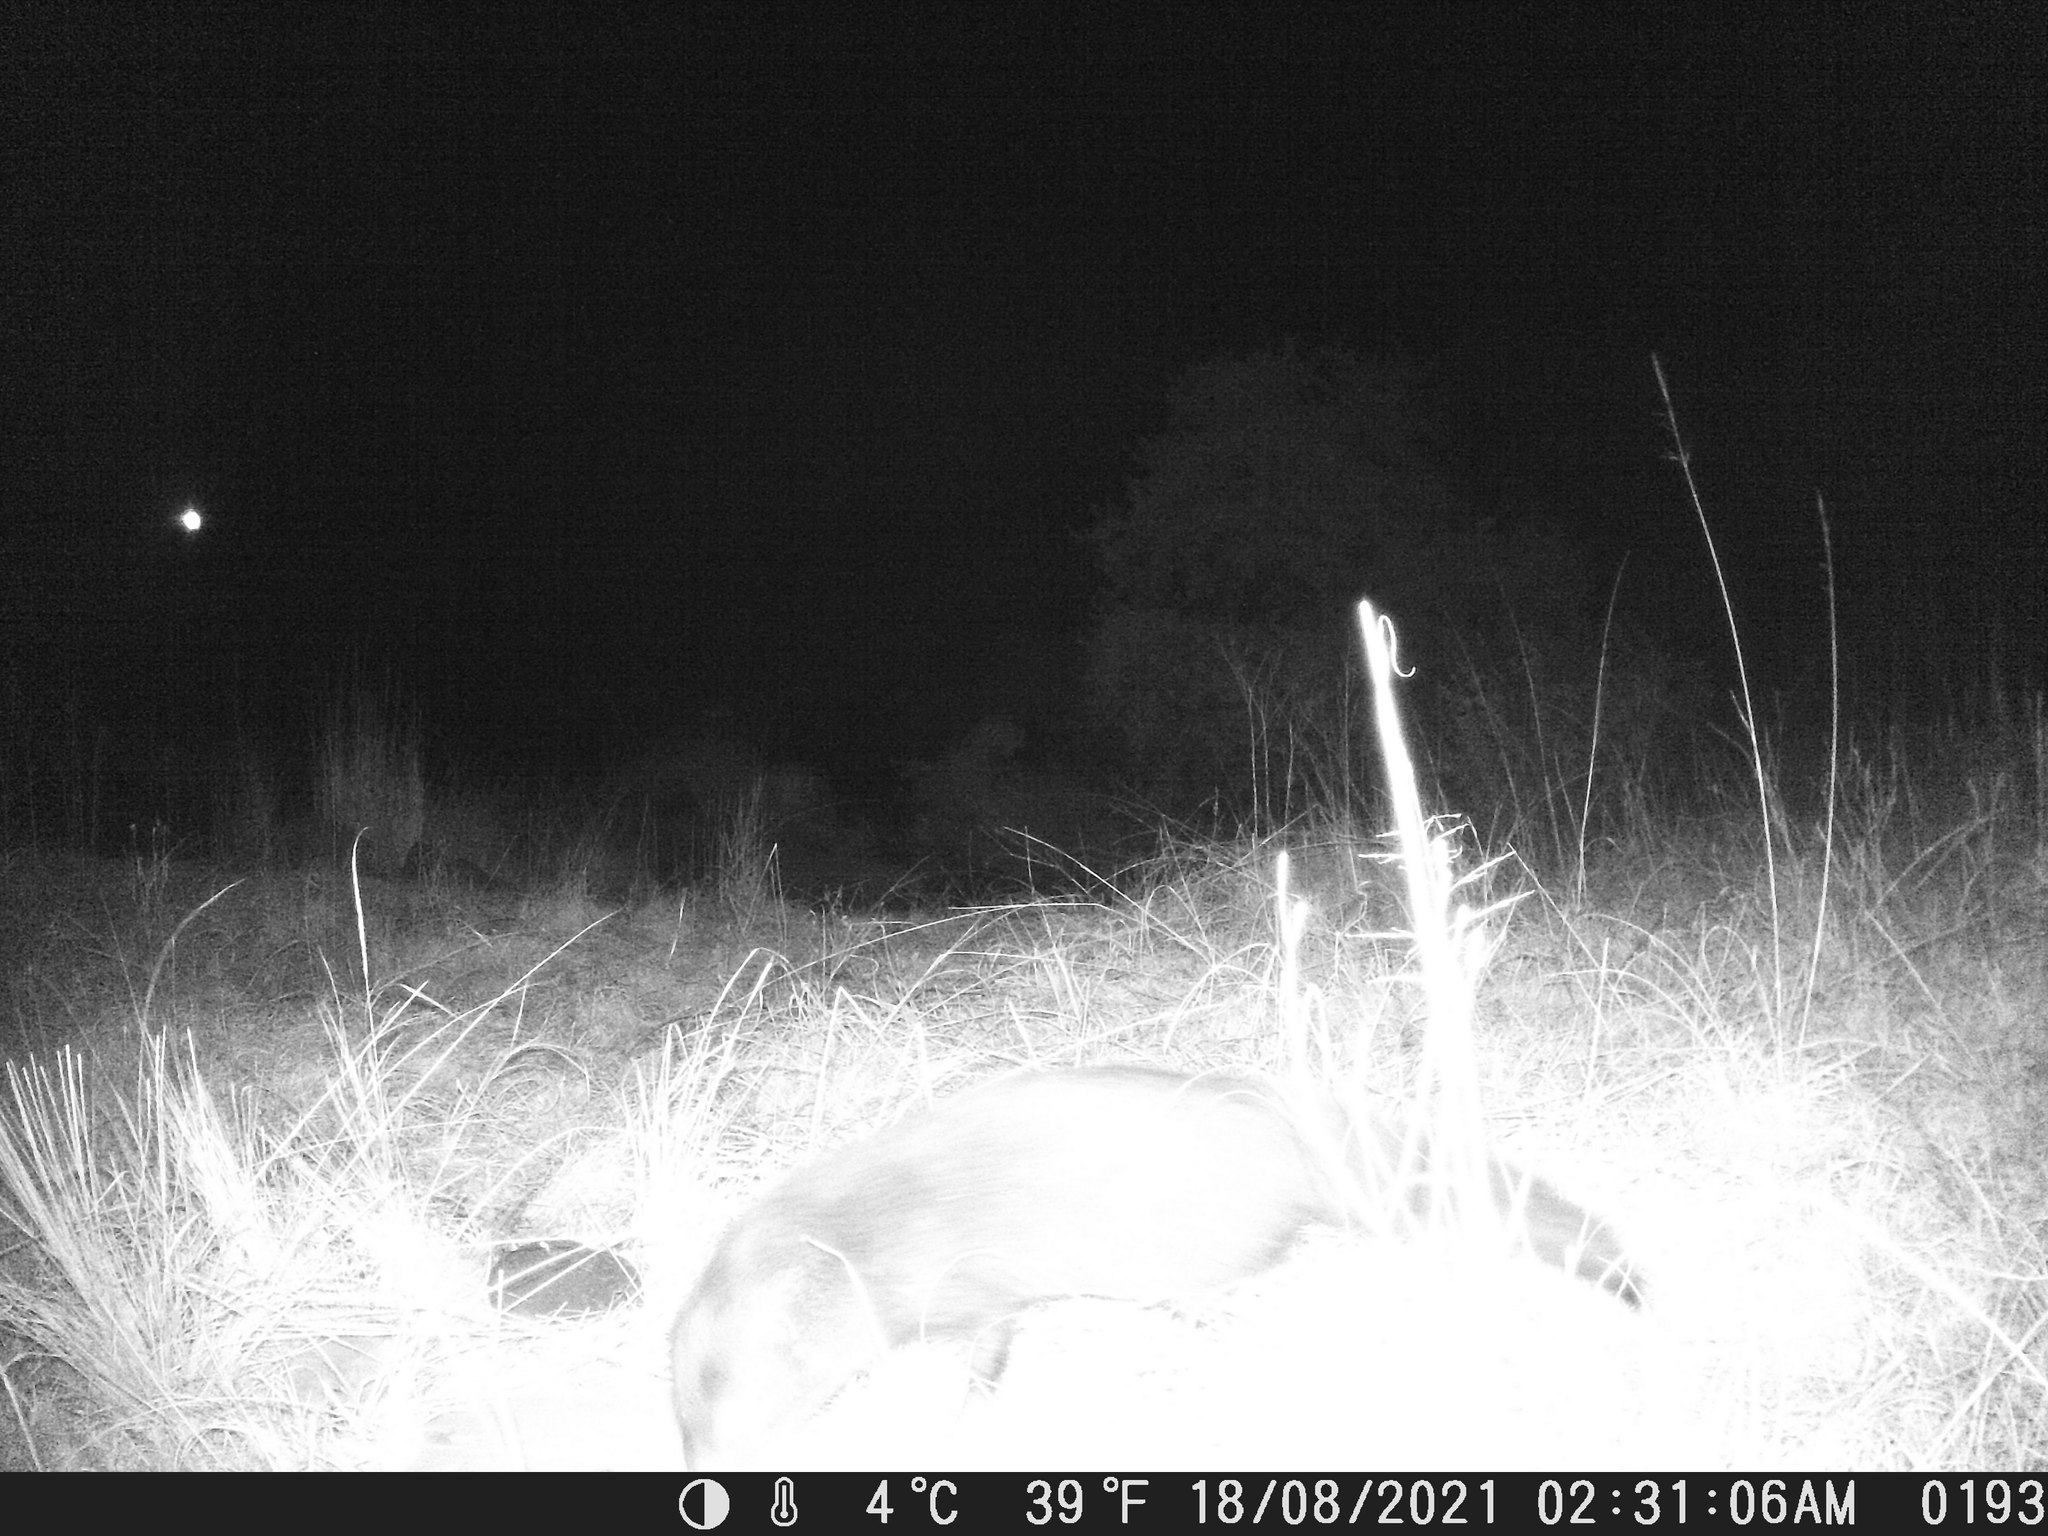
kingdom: Animalia
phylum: Chordata
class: Mammalia
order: Carnivora
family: Herpestidae
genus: Atilax
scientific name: Atilax paludinosus
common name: Marsh mongoose
